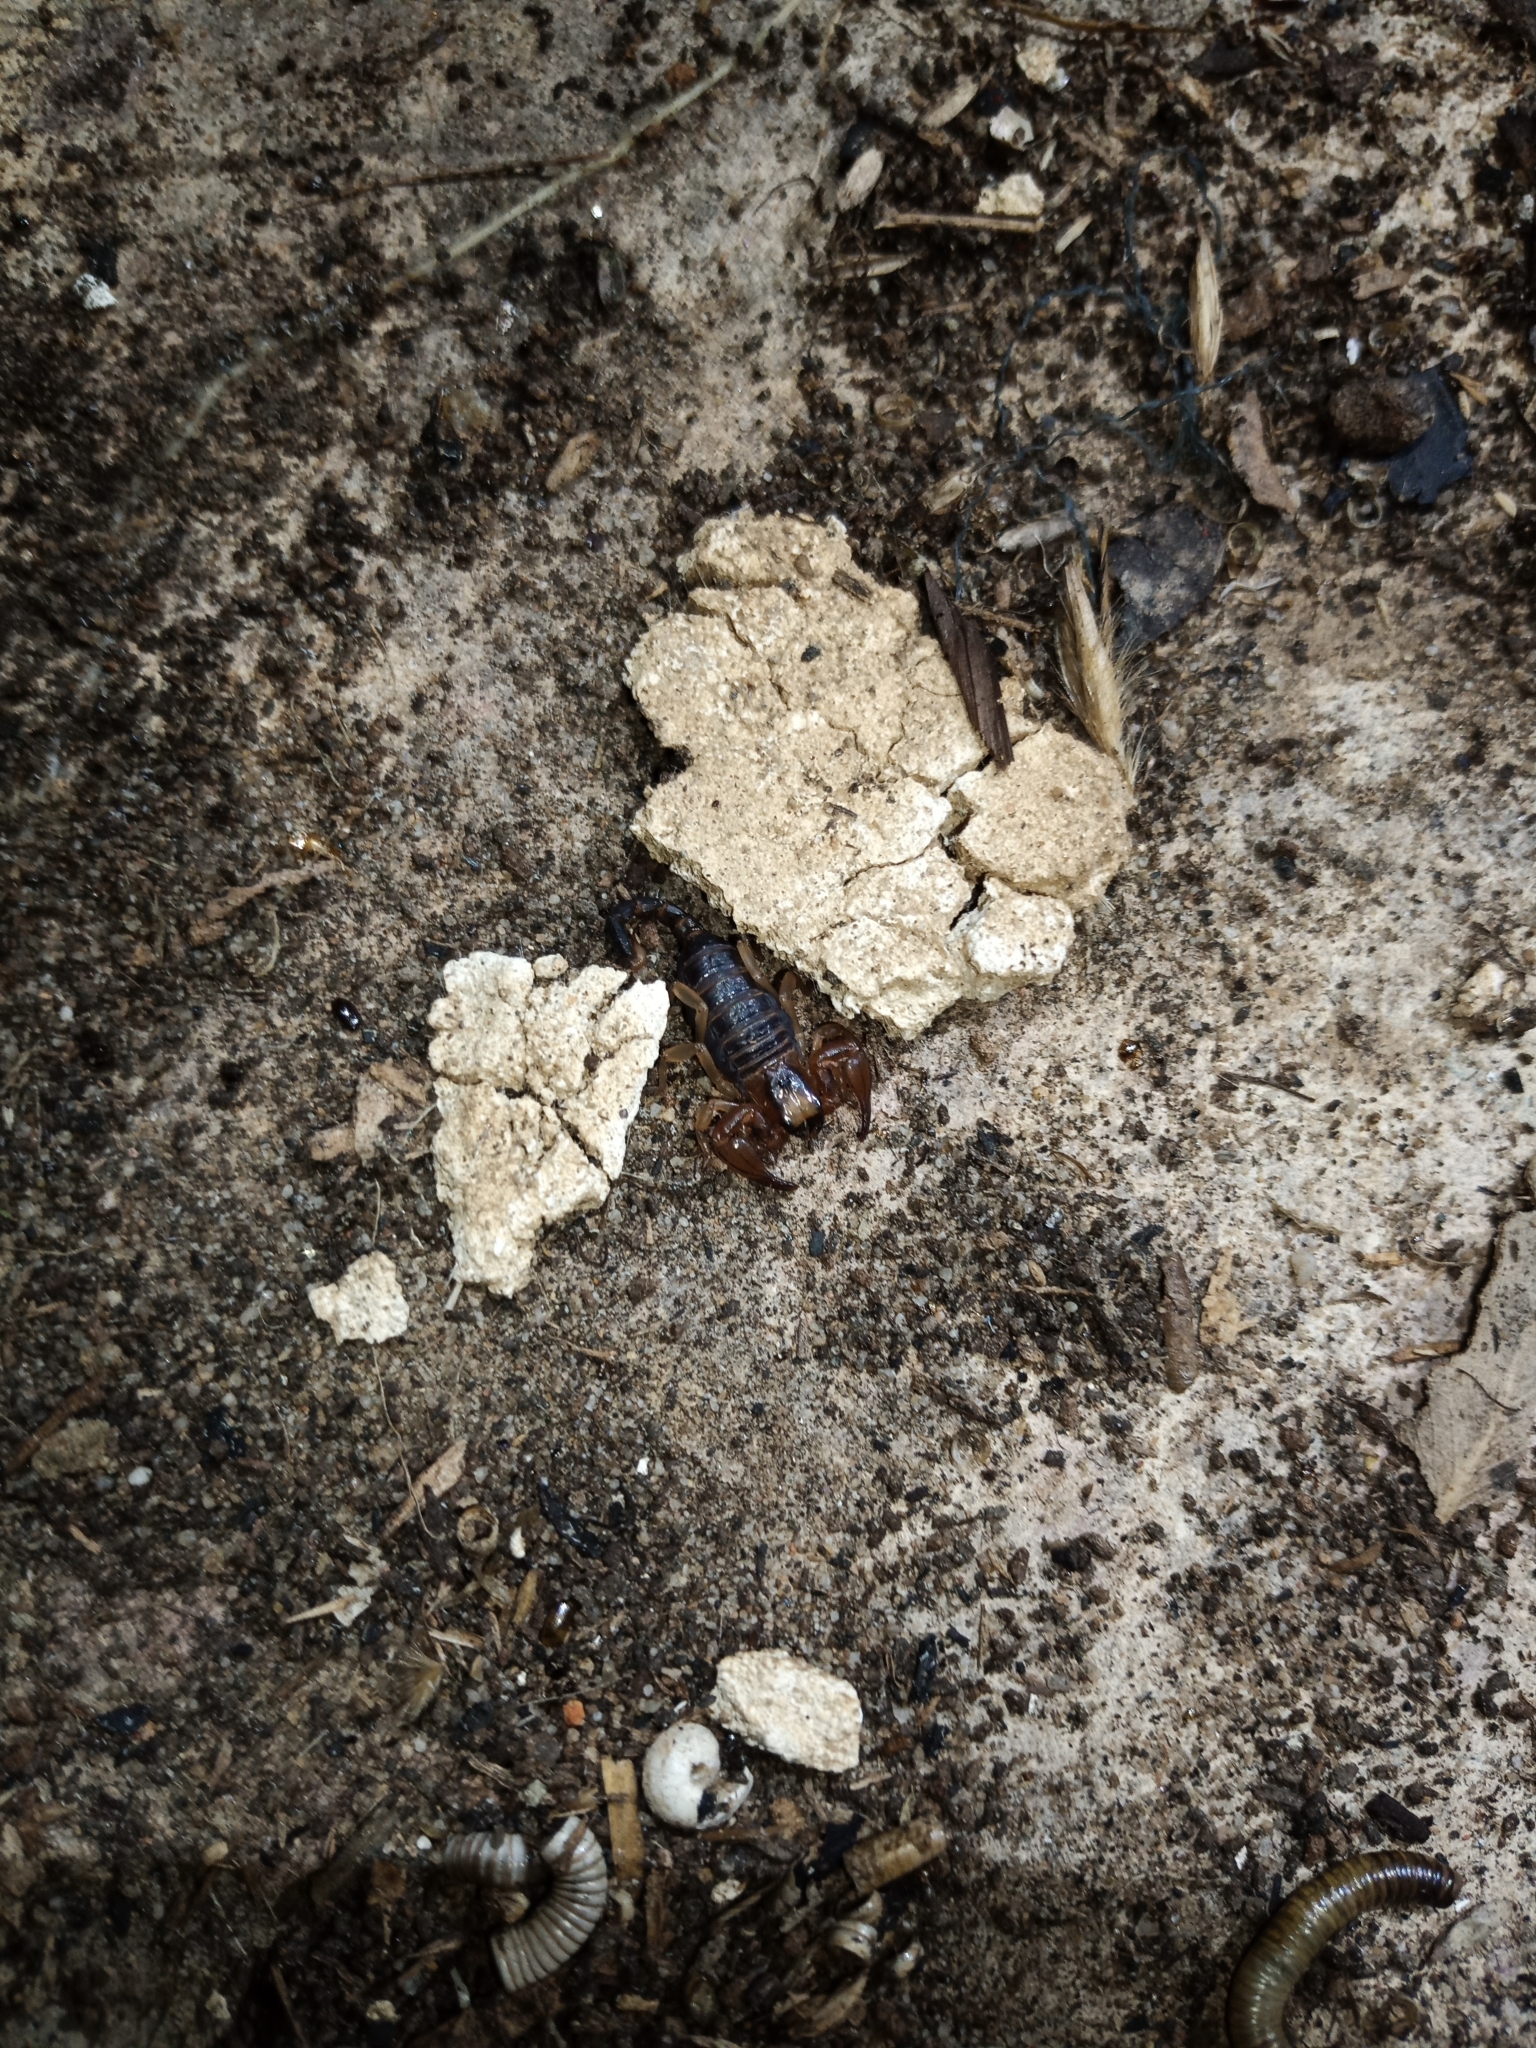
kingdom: Animalia
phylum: Arthropoda
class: Arachnida
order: Scorpiones
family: Scorpionidae
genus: Opistophthalmus
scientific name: Opistophthalmus capensis
